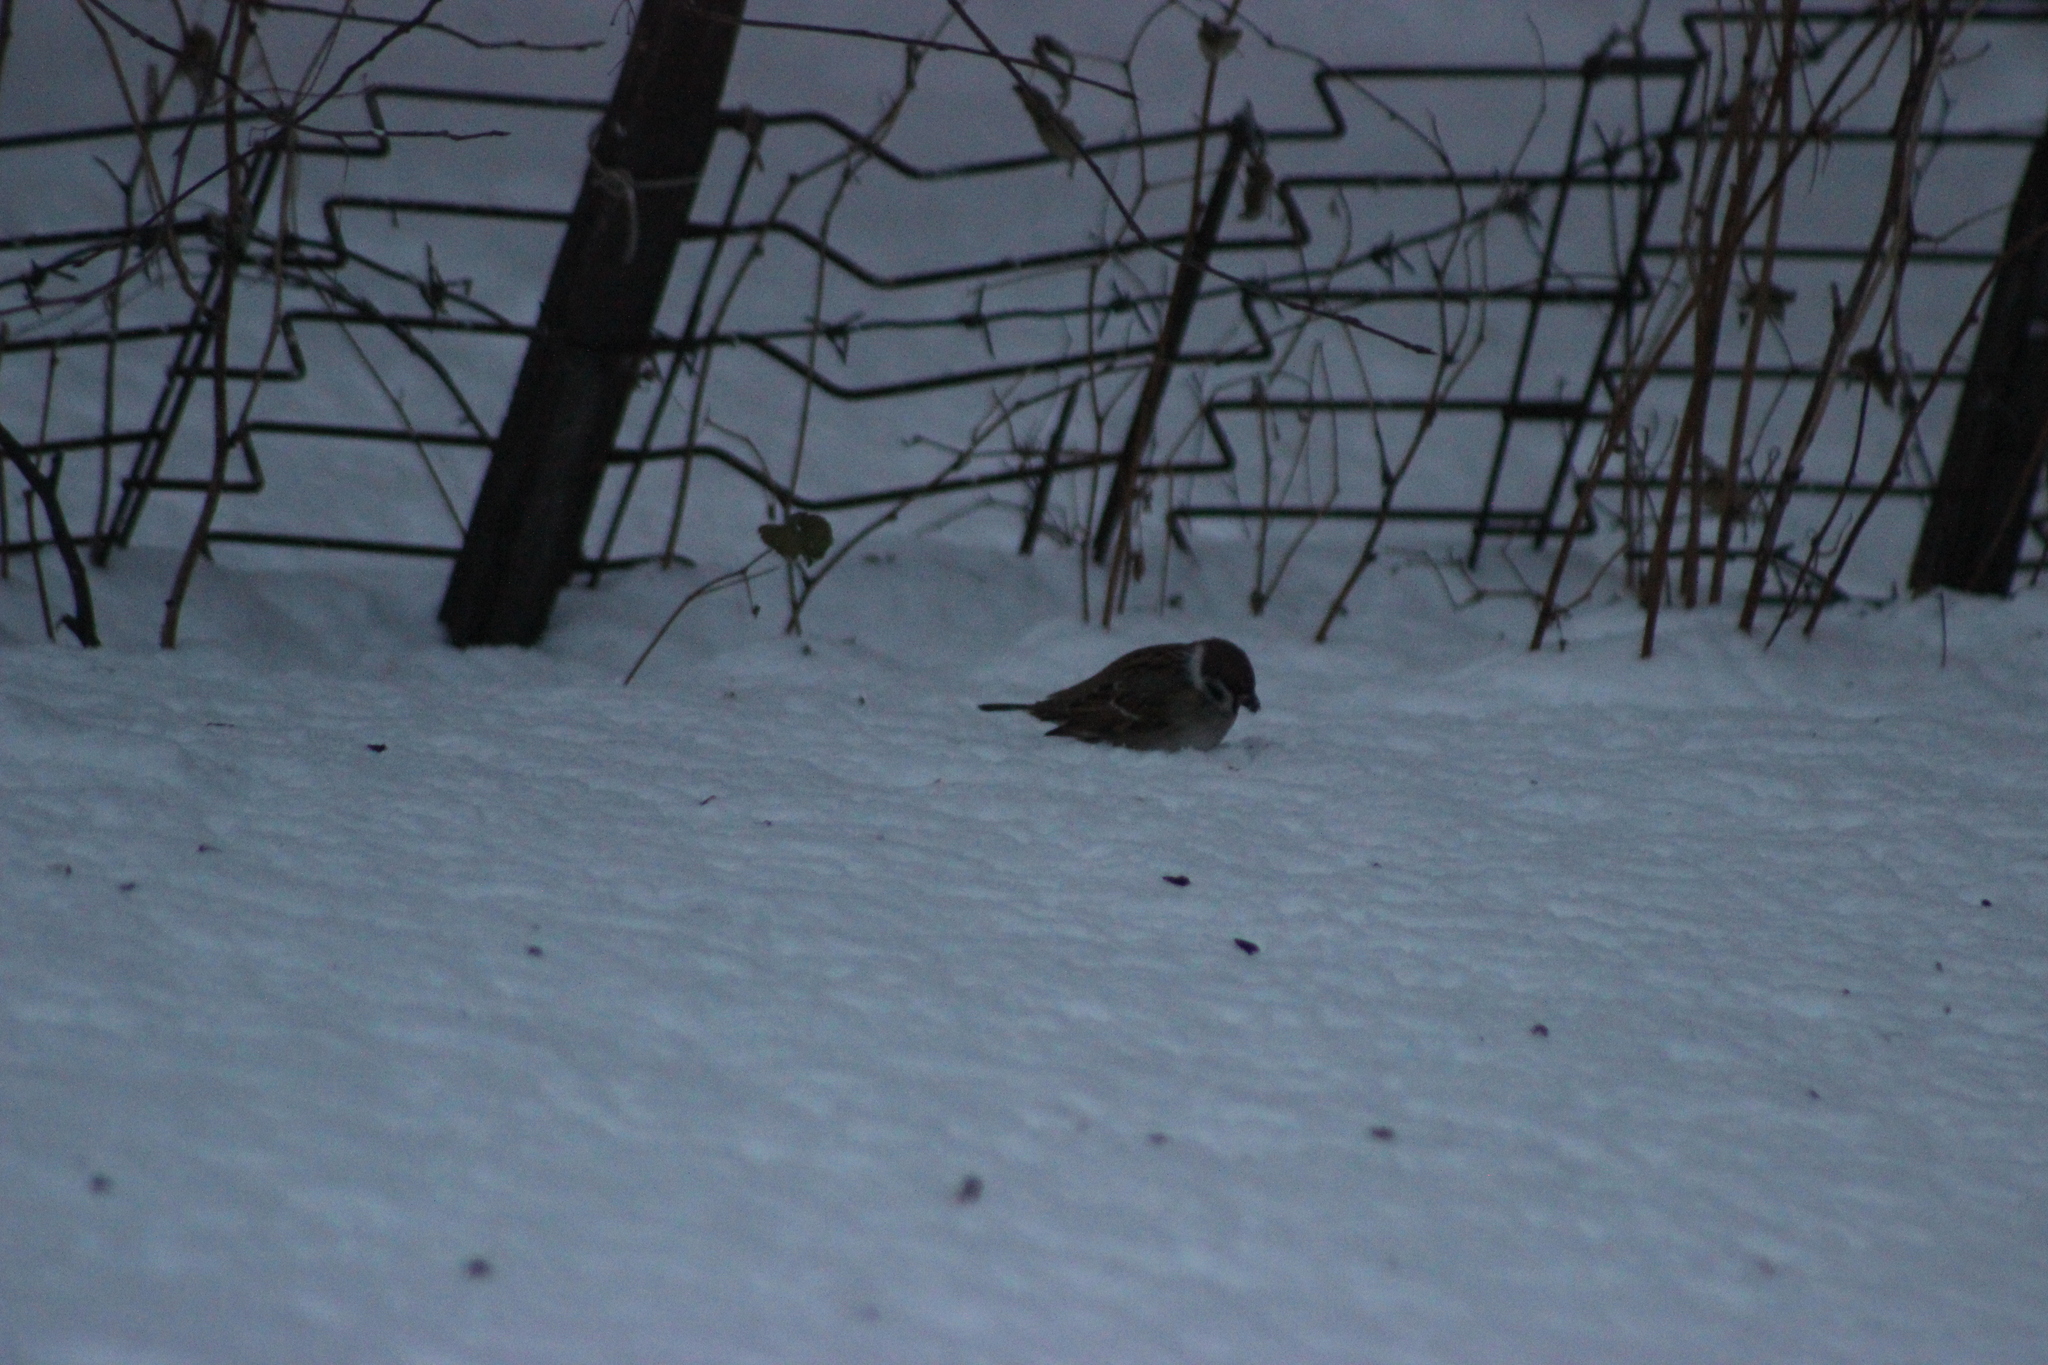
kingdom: Animalia
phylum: Chordata
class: Aves
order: Passeriformes
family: Passeridae
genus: Passer
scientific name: Passer montanus
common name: Eurasian tree sparrow
